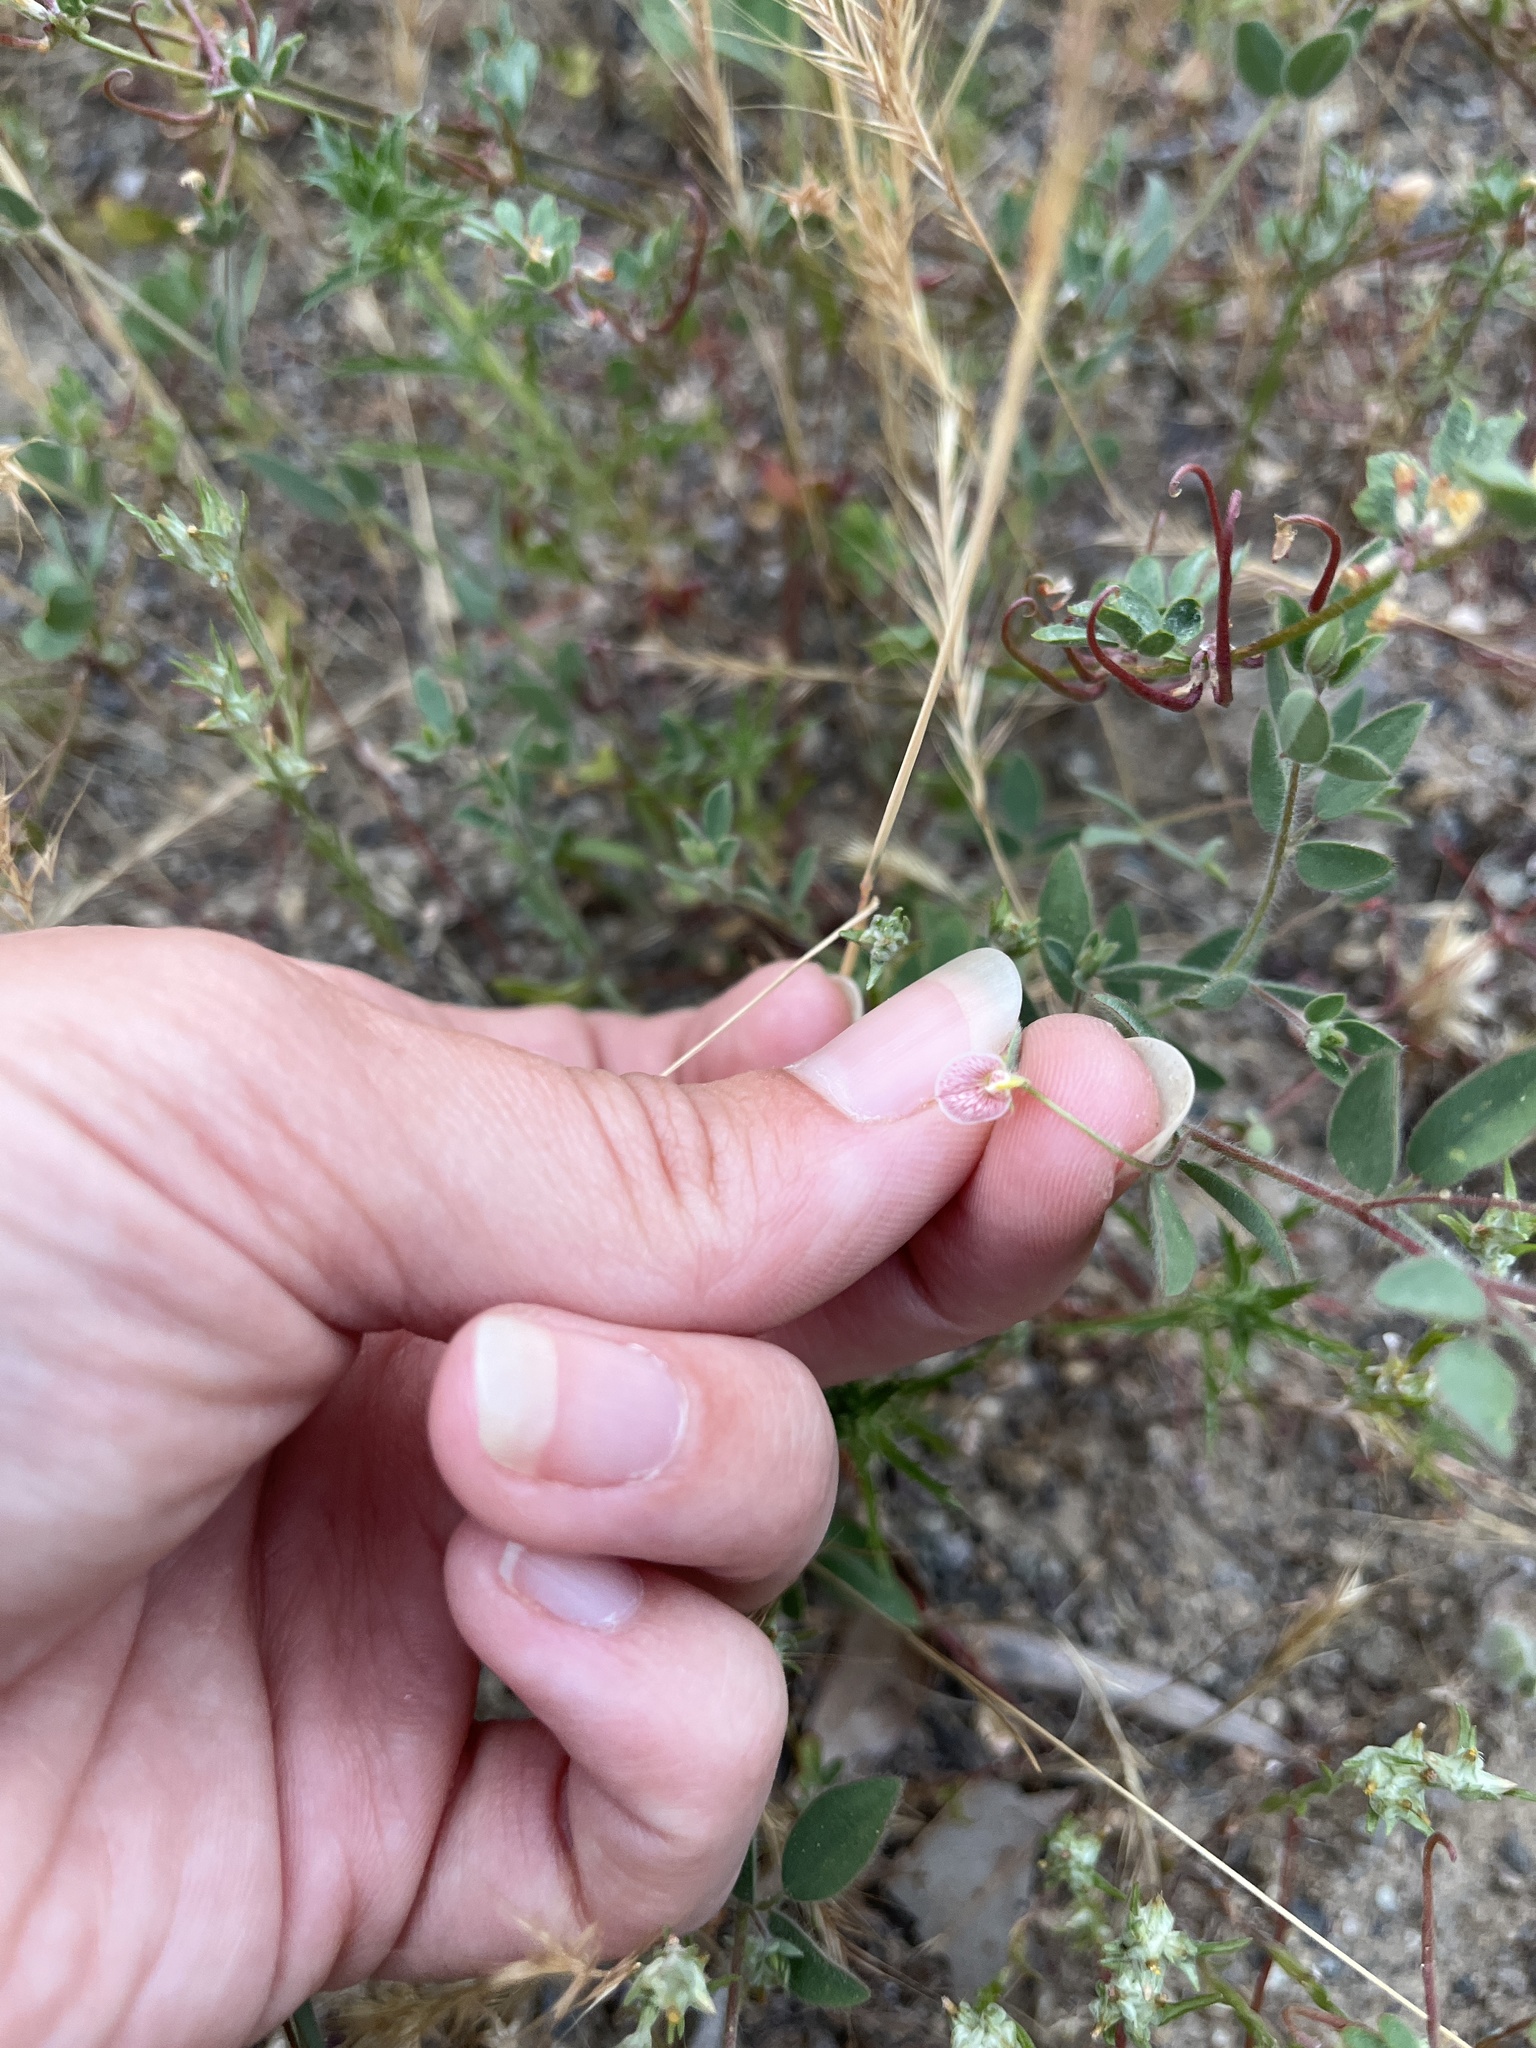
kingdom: Plantae
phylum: Tracheophyta
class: Magnoliopsida
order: Fabales
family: Fabaceae
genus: Acmispon
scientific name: Acmispon americanus
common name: American bird's-foot trefoil
